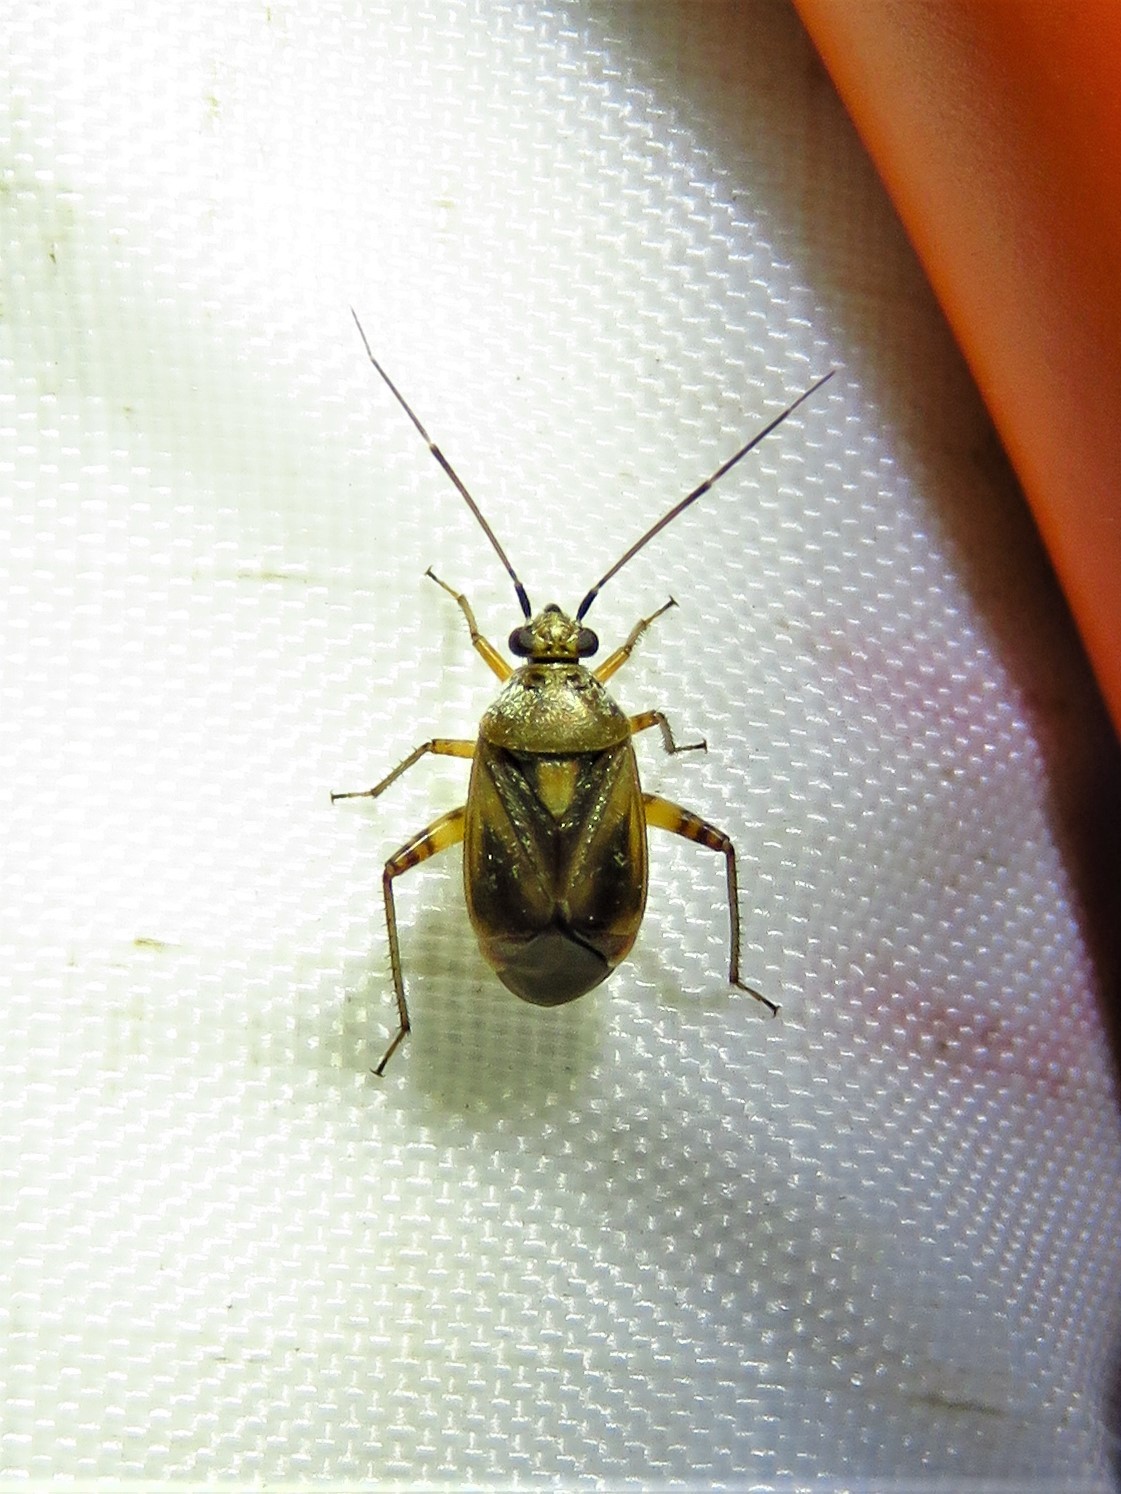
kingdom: Animalia
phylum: Arthropoda
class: Insecta
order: Hemiptera
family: Miridae
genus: Polymerus
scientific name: Polymerus basalis
